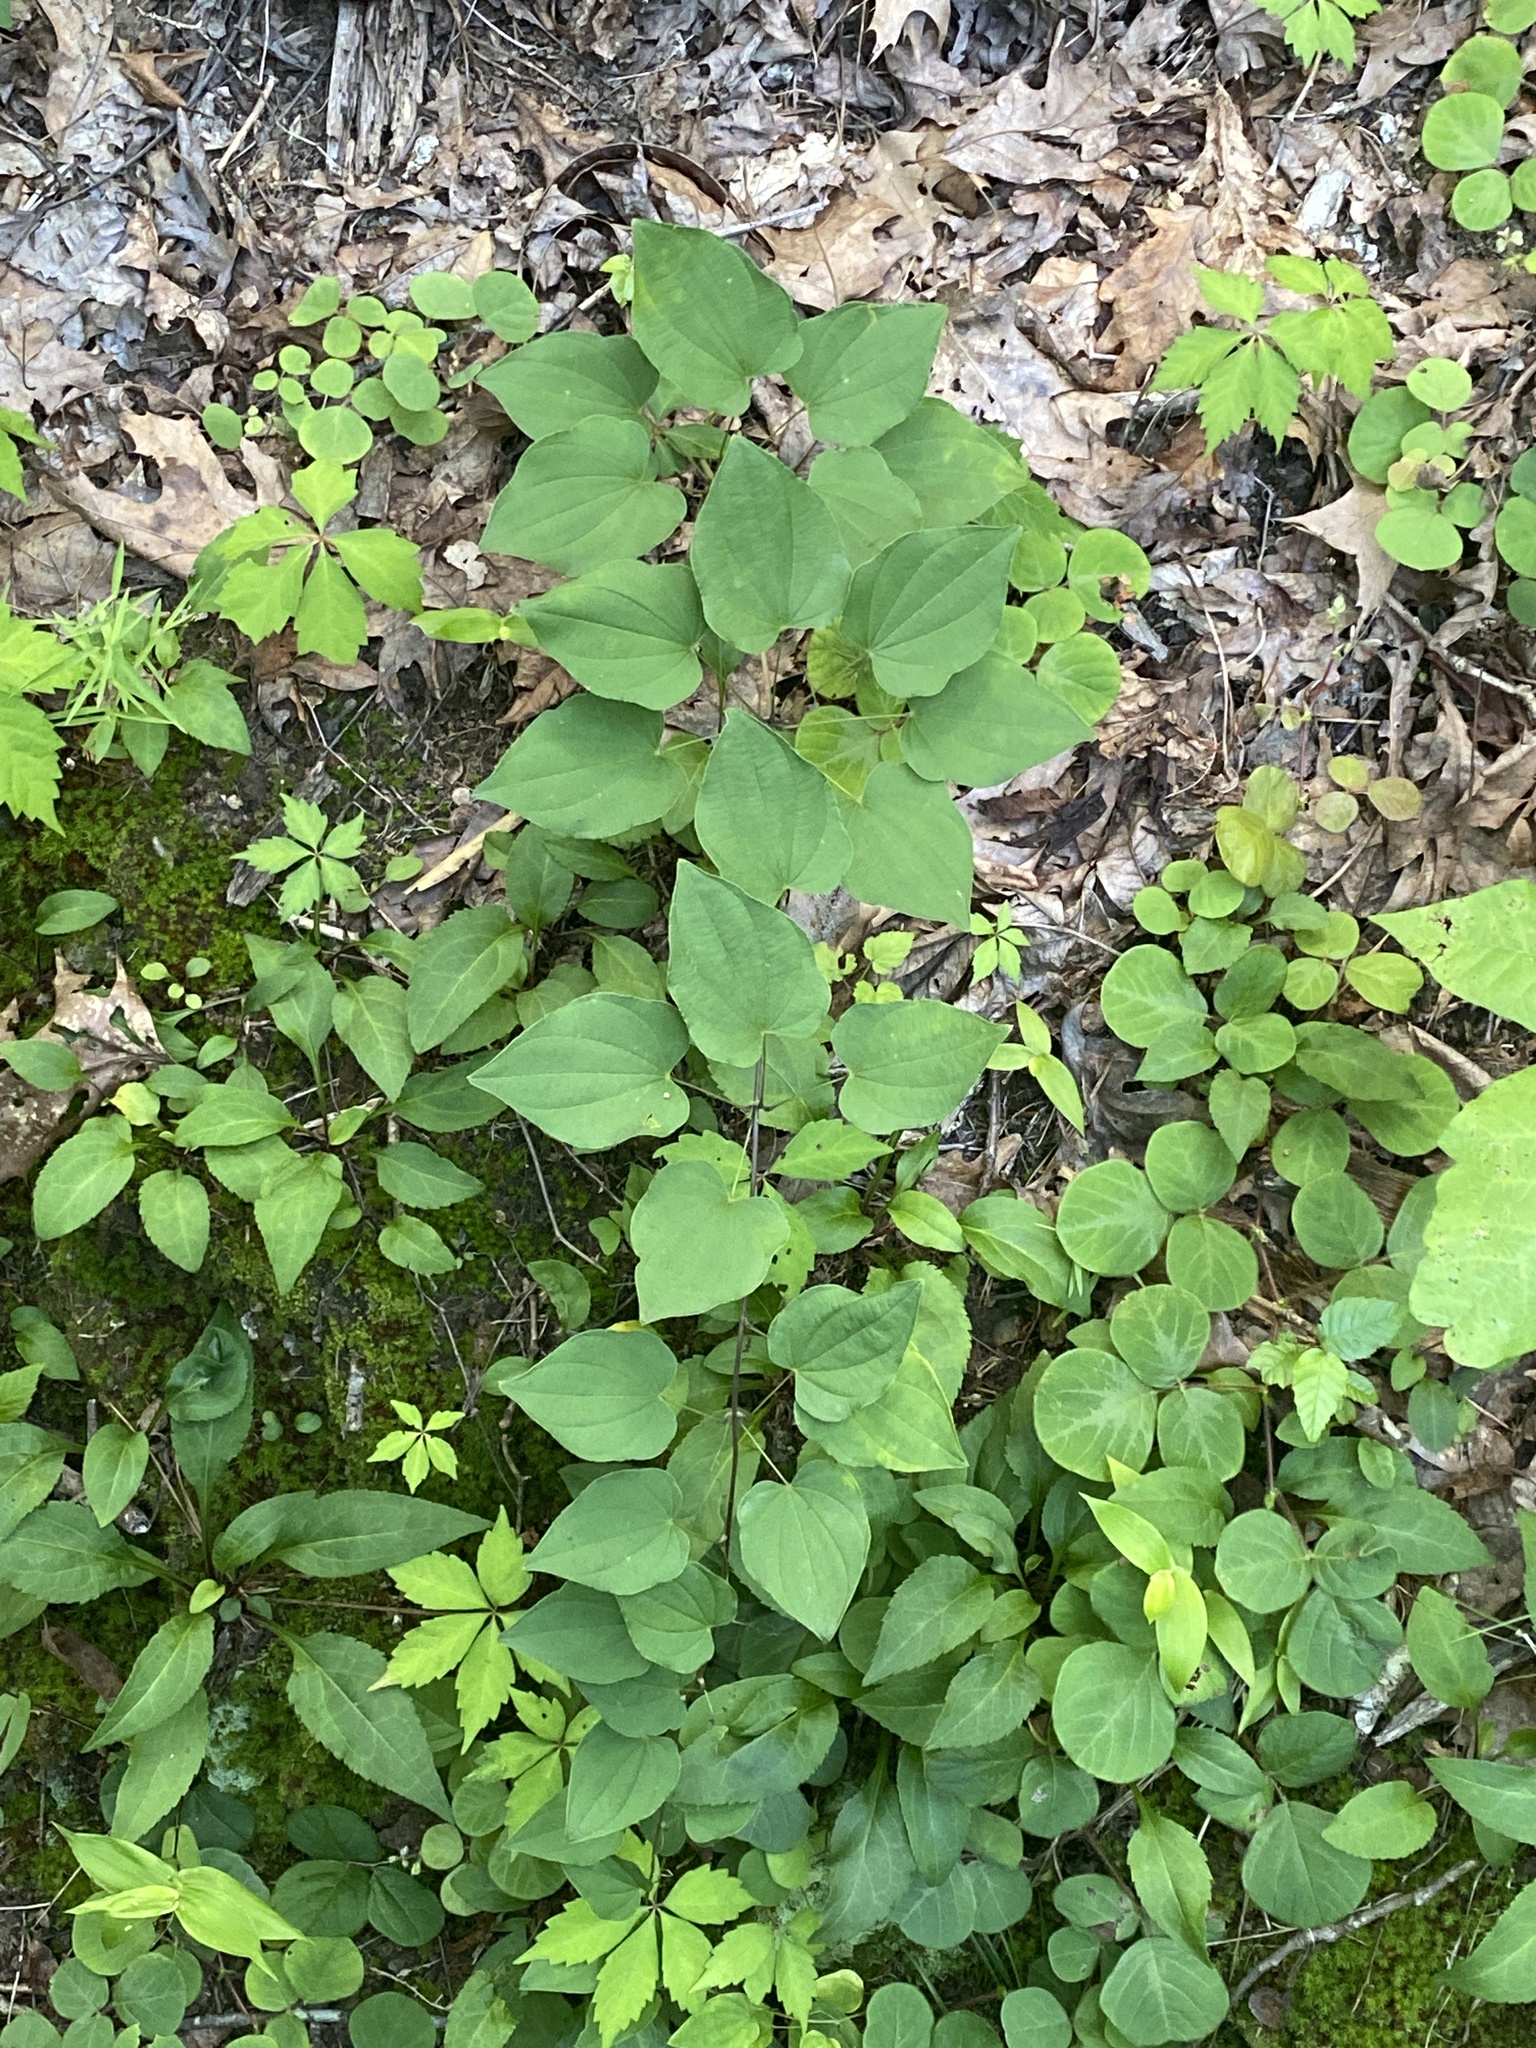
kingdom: Plantae
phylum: Tracheophyta
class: Liliopsida
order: Dioscoreales
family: Dioscoreaceae
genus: Dioscorea
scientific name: Dioscorea villosa
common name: Wild yam
